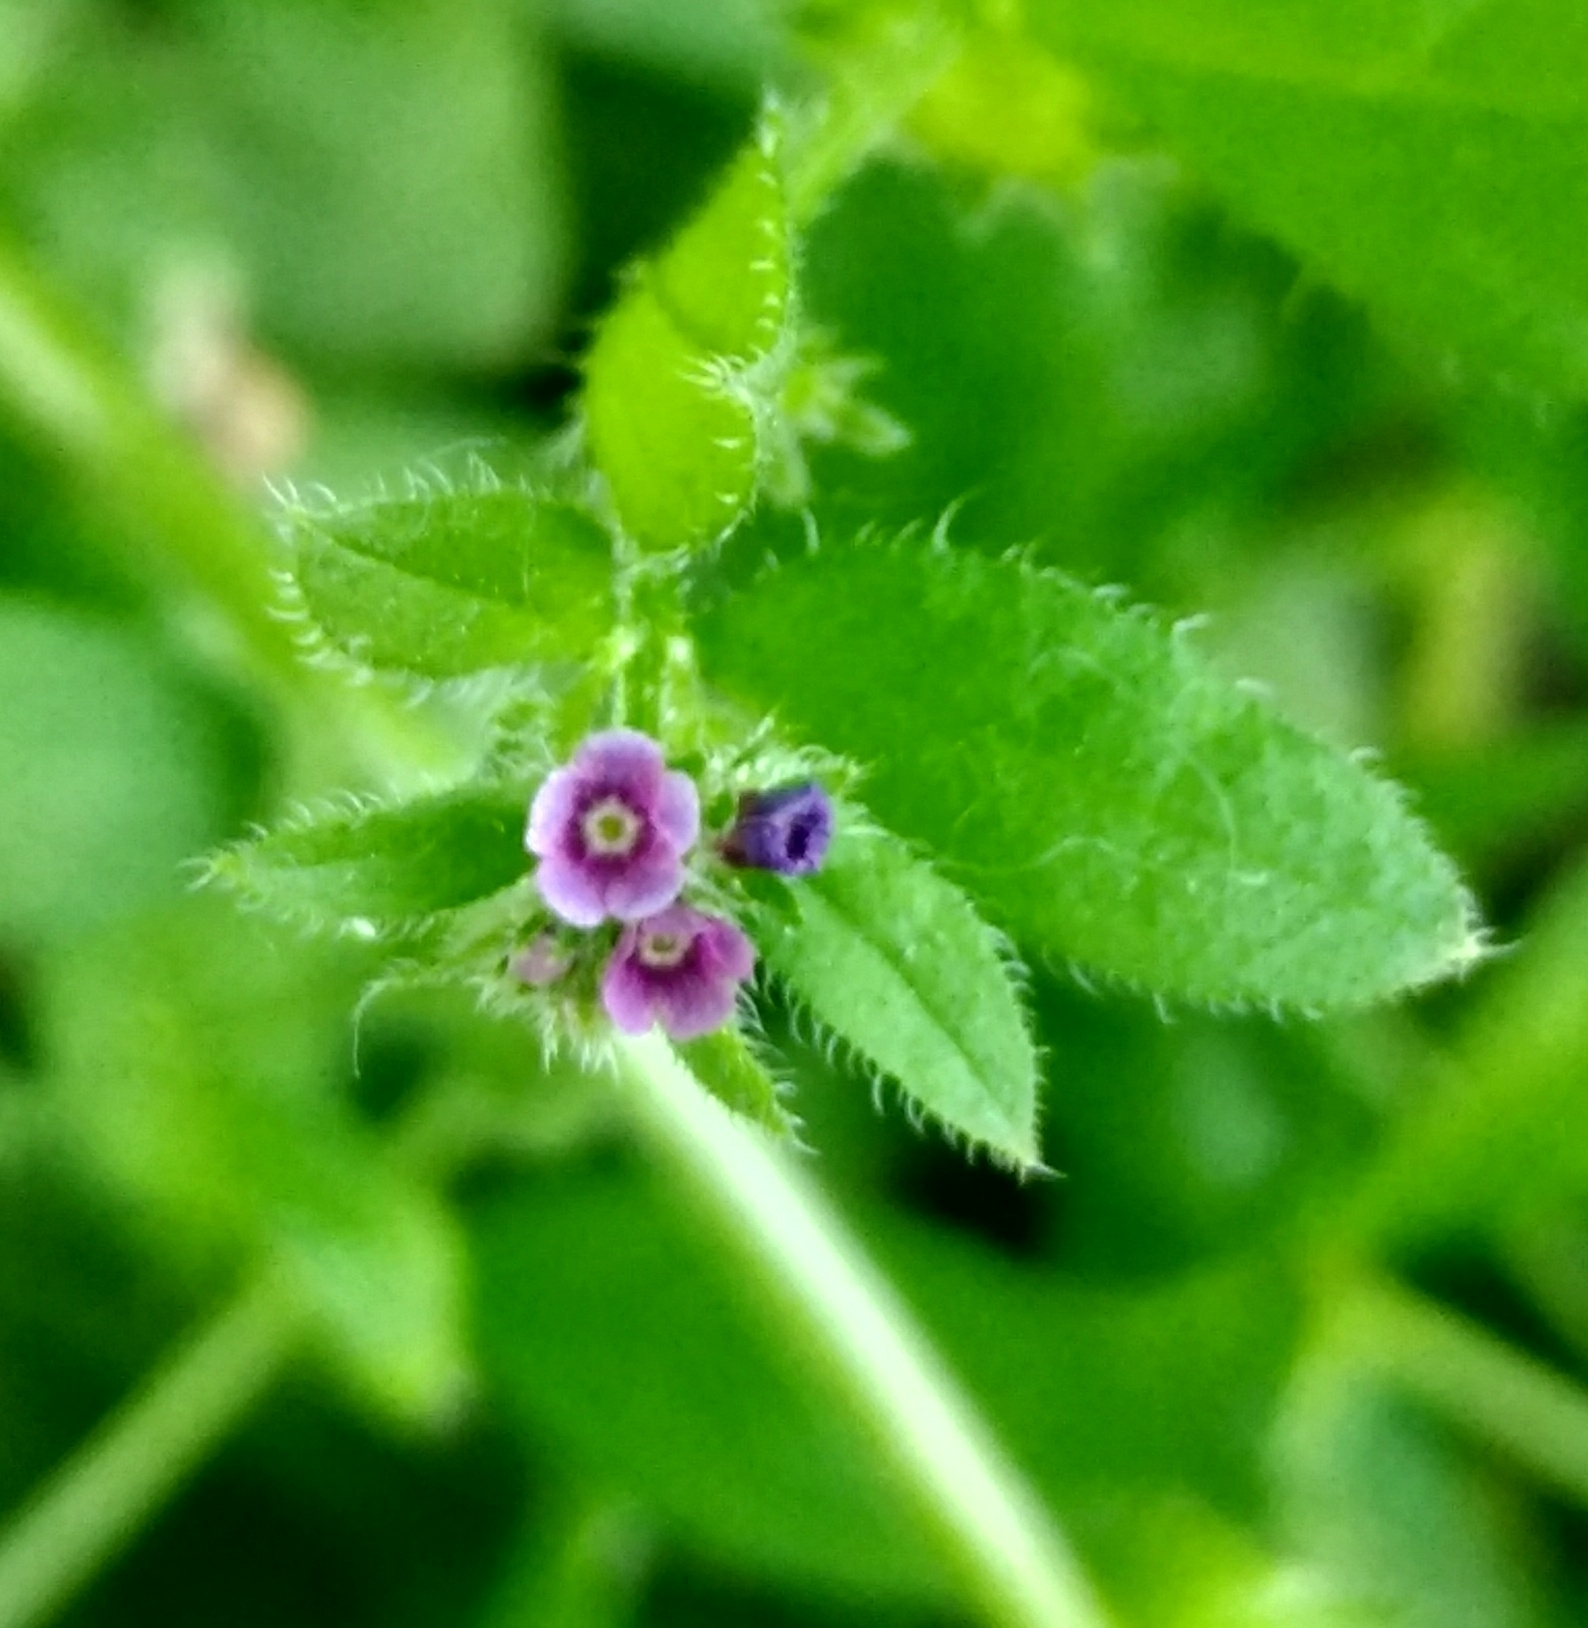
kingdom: Plantae
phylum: Tracheophyta
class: Magnoliopsida
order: Boraginales
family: Boraginaceae
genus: Asperugo
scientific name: Asperugo procumbens
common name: Madwort
